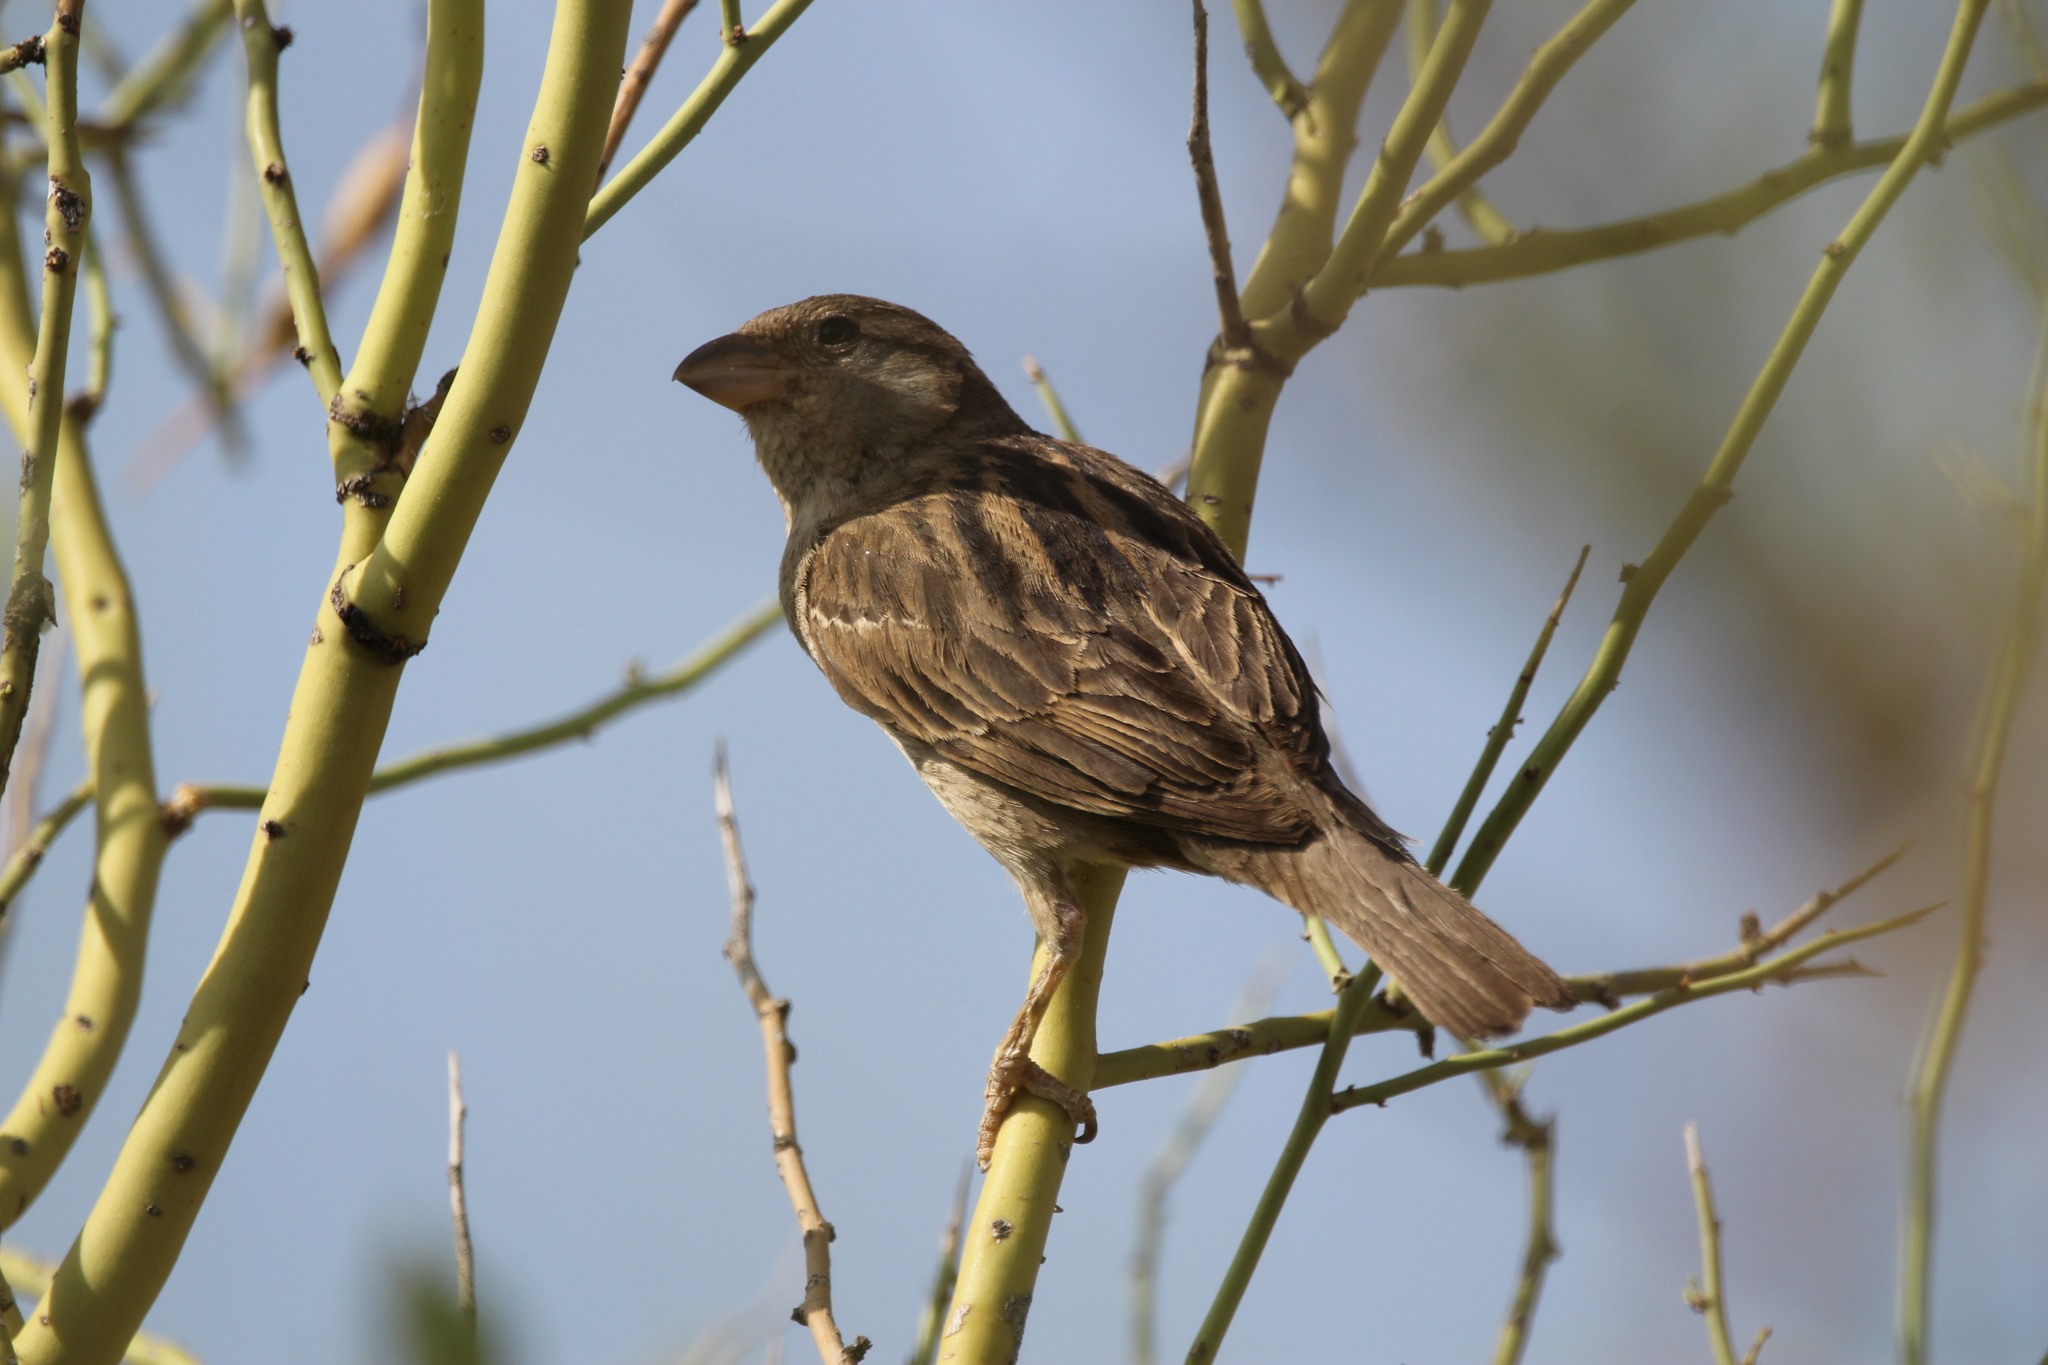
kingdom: Animalia
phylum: Chordata
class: Aves
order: Passeriformes
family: Passeridae
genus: Passer
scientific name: Passer domesticus
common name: House sparrow
